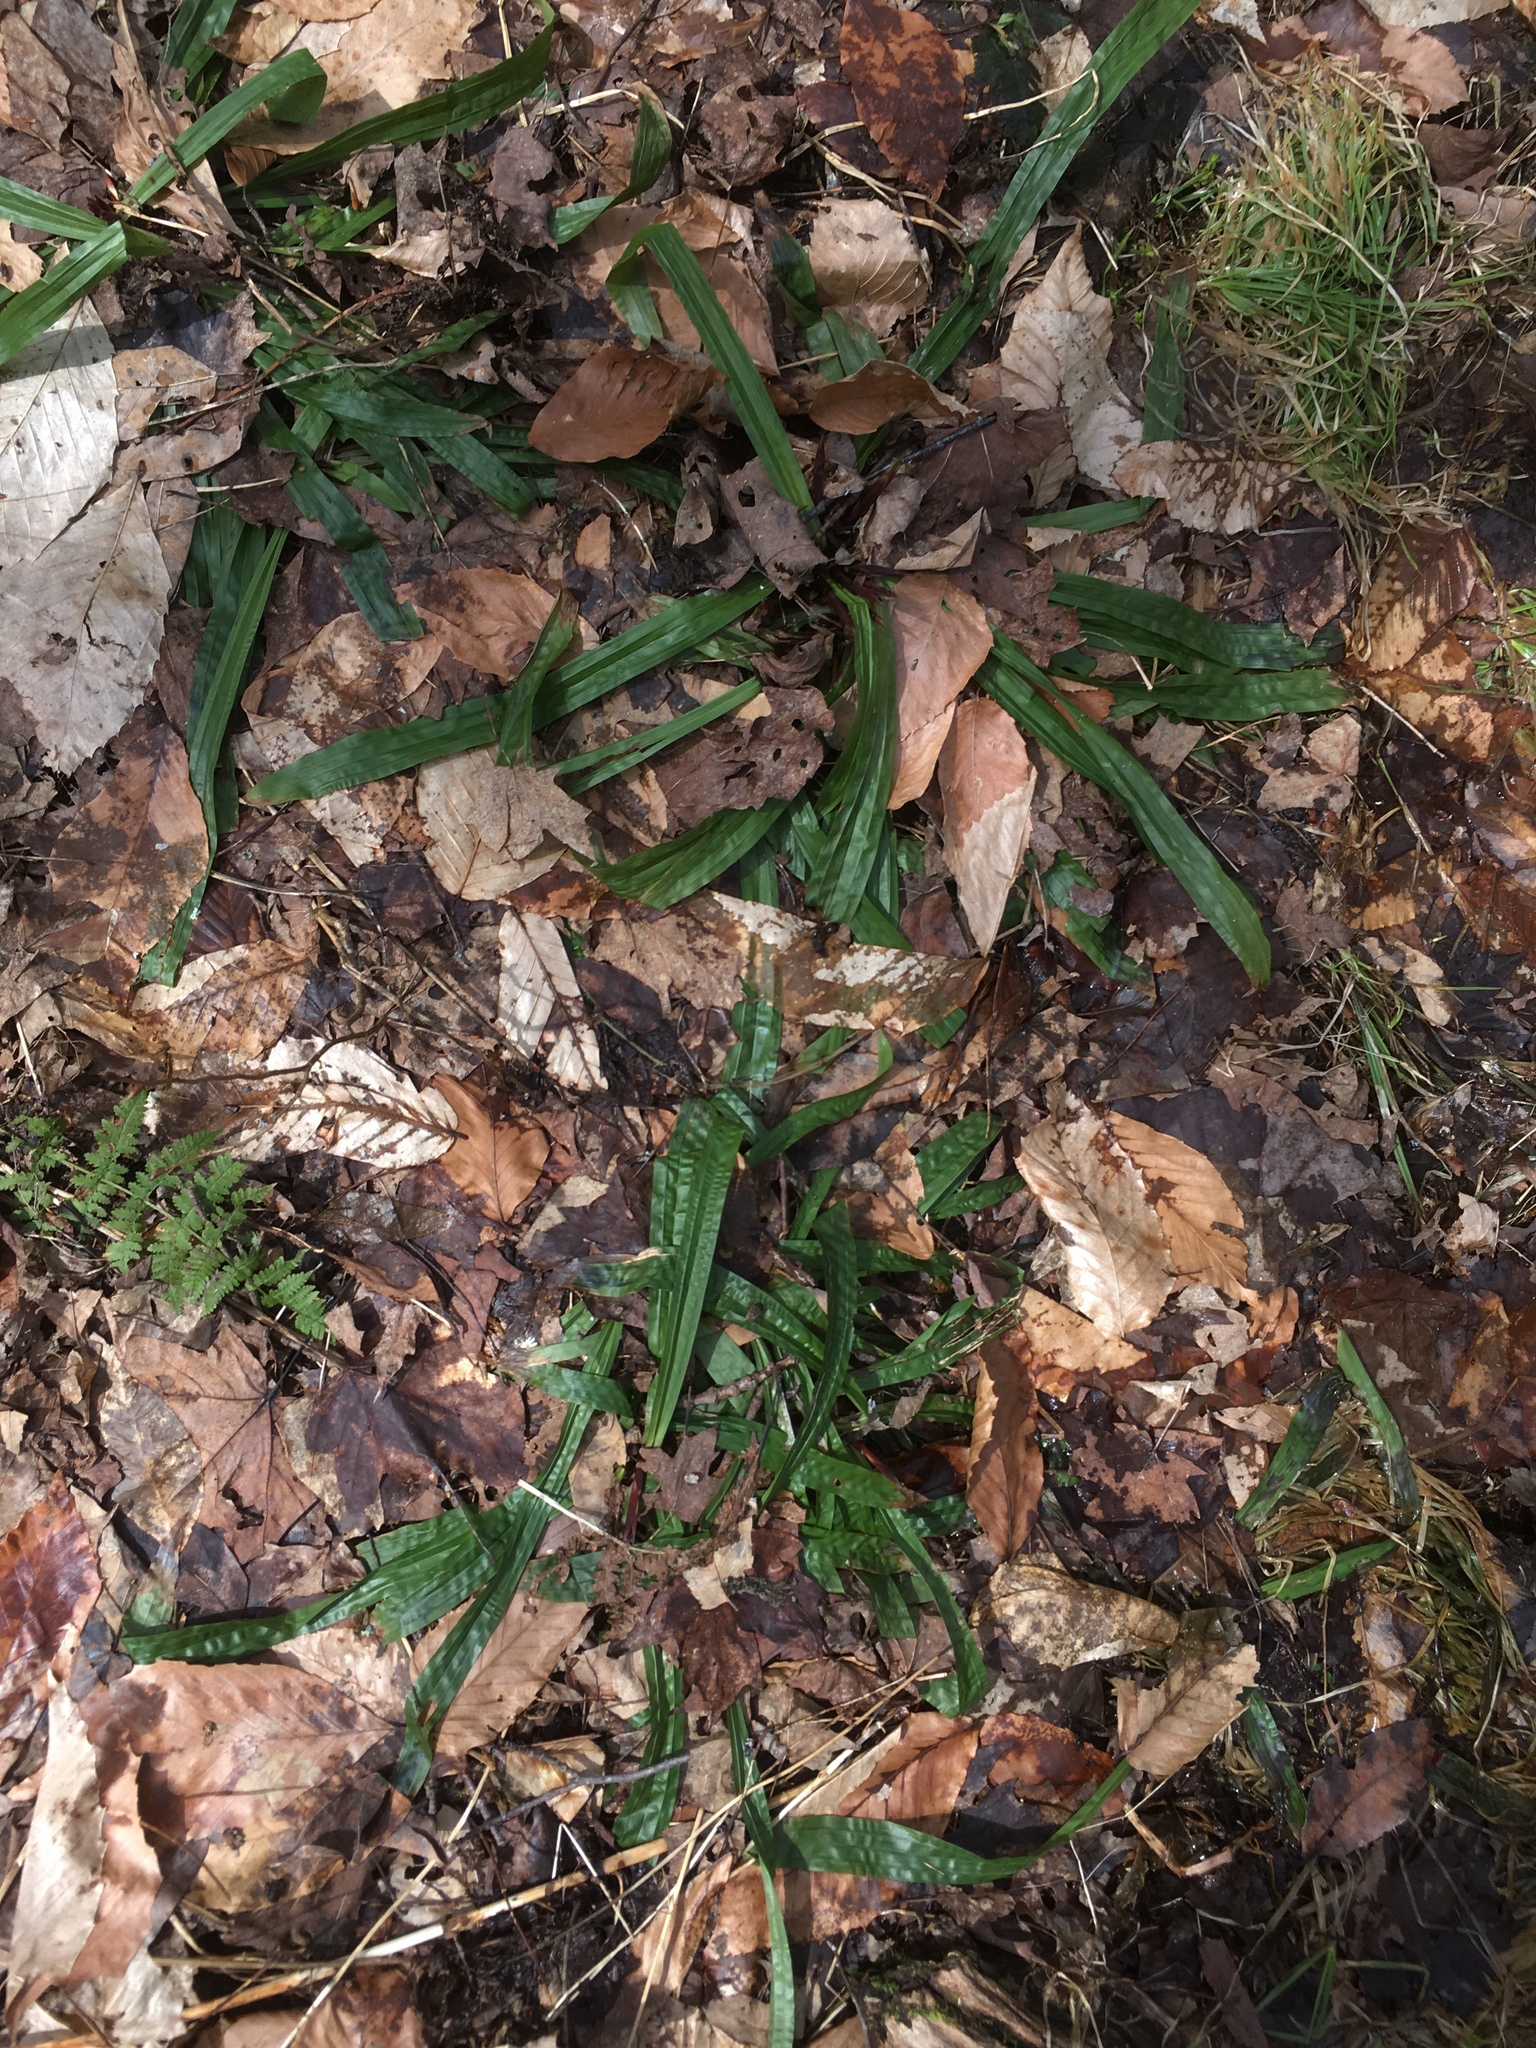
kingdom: Plantae
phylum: Tracheophyta
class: Liliopsida
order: Poales
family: Cyperaceae
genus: Carex
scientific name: Carex plantaginea
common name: Plantain-leaved sedge
